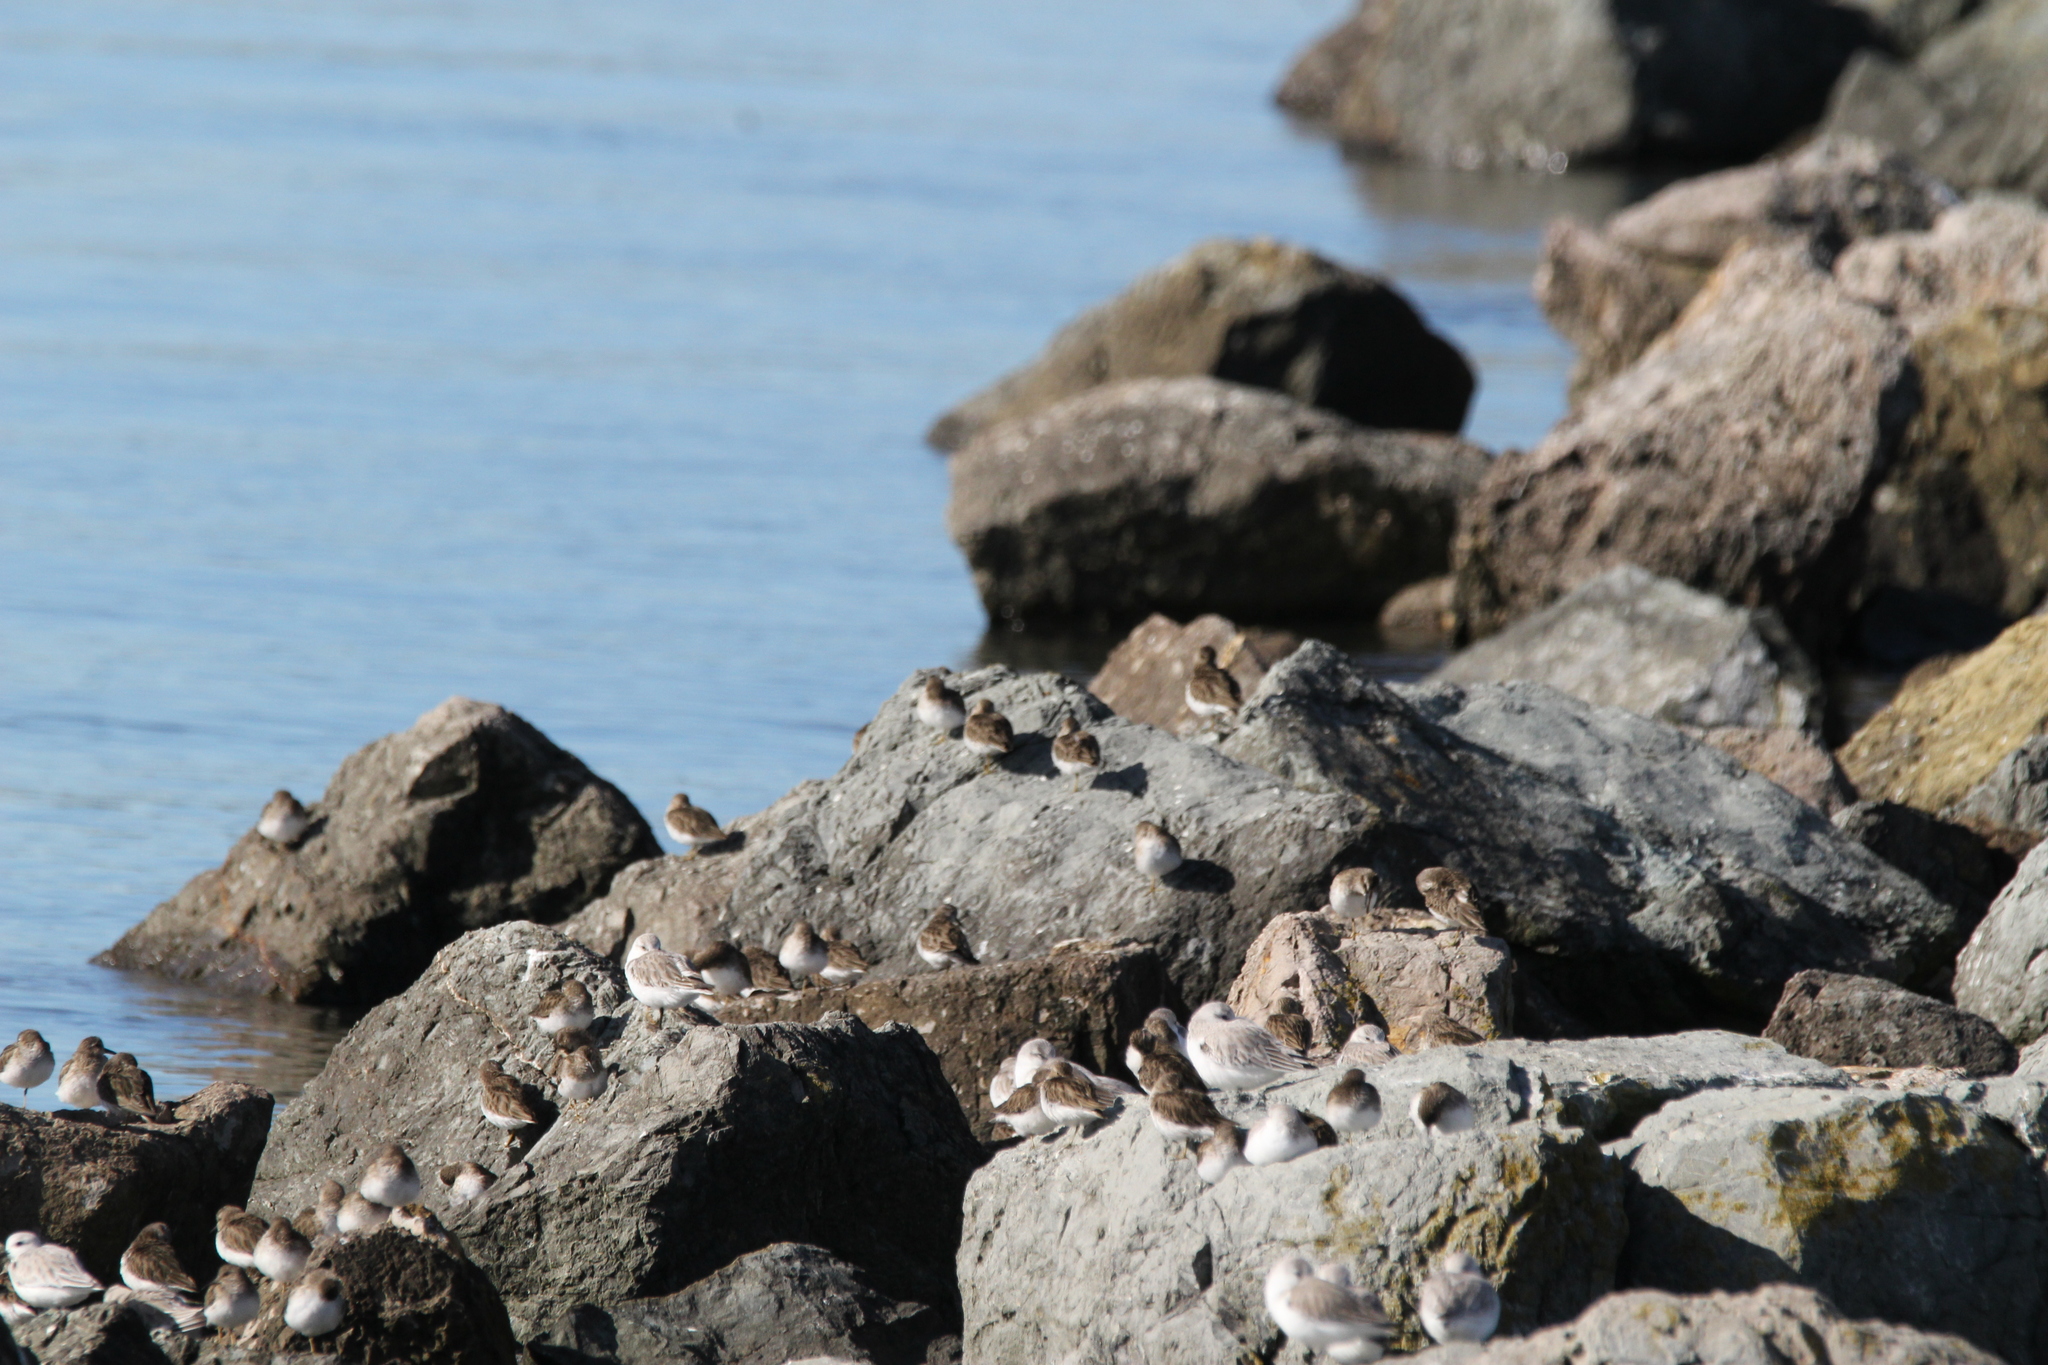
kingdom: Animalia
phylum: Chordata
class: Aves
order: Charadriiformes
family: Scolopacidae
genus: Calidris
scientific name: Calidris minutilla
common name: Least sandpiper
